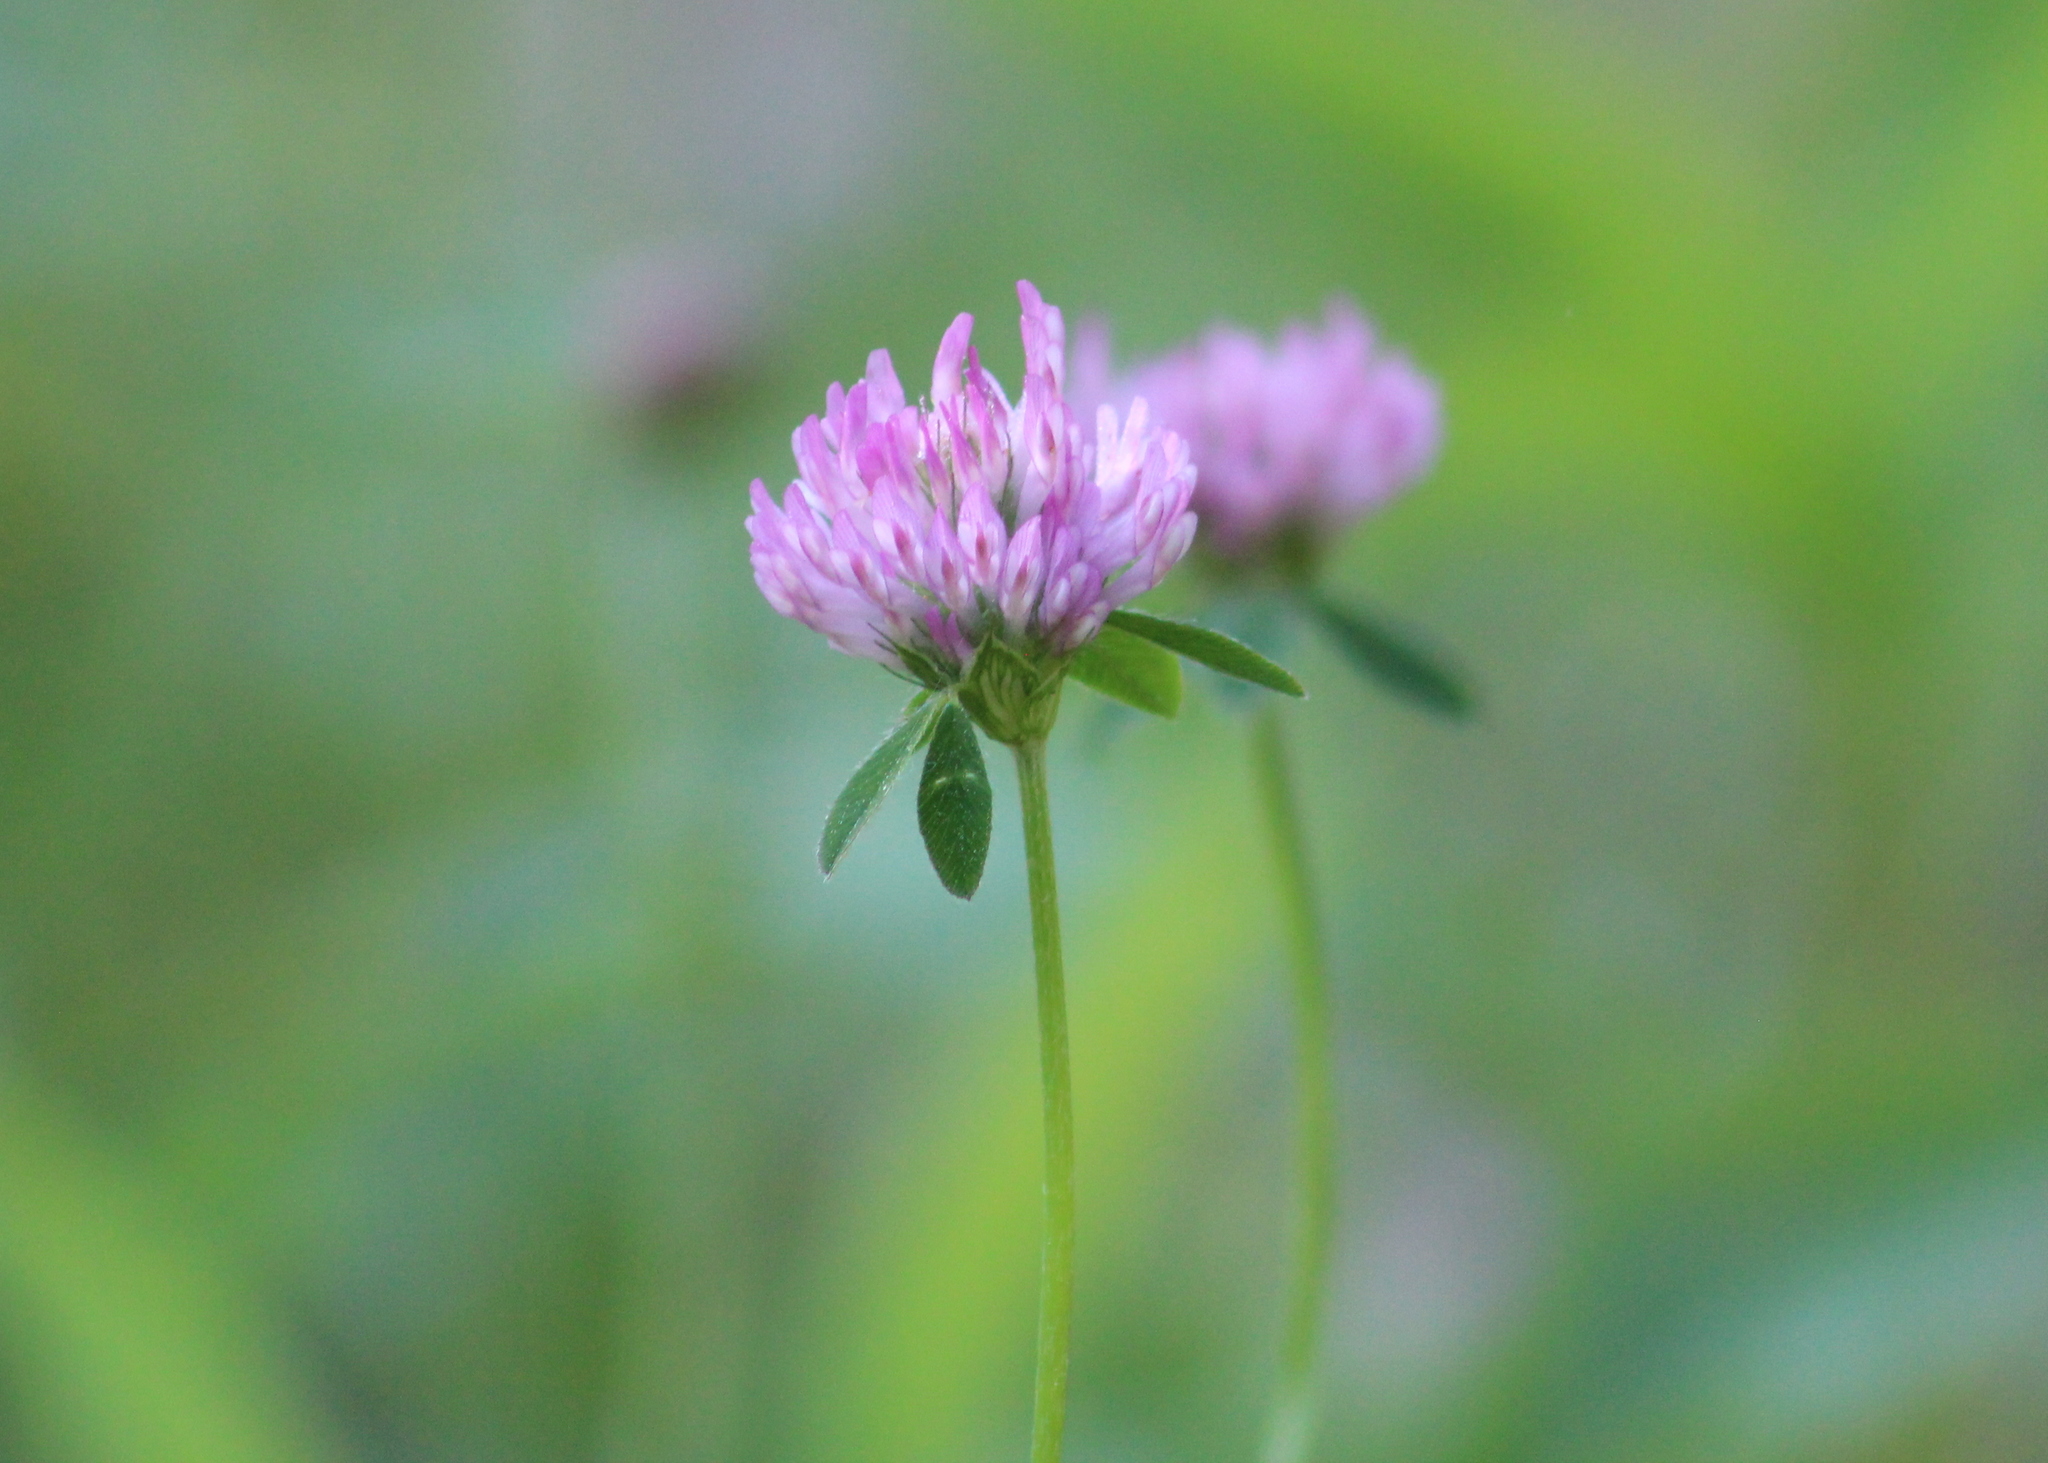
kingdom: Plantae
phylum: Tracheophyta
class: Magnoliopsida
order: Fabales
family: Fabaceae
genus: Trifolium
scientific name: Trifolium pratense
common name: Red clover
